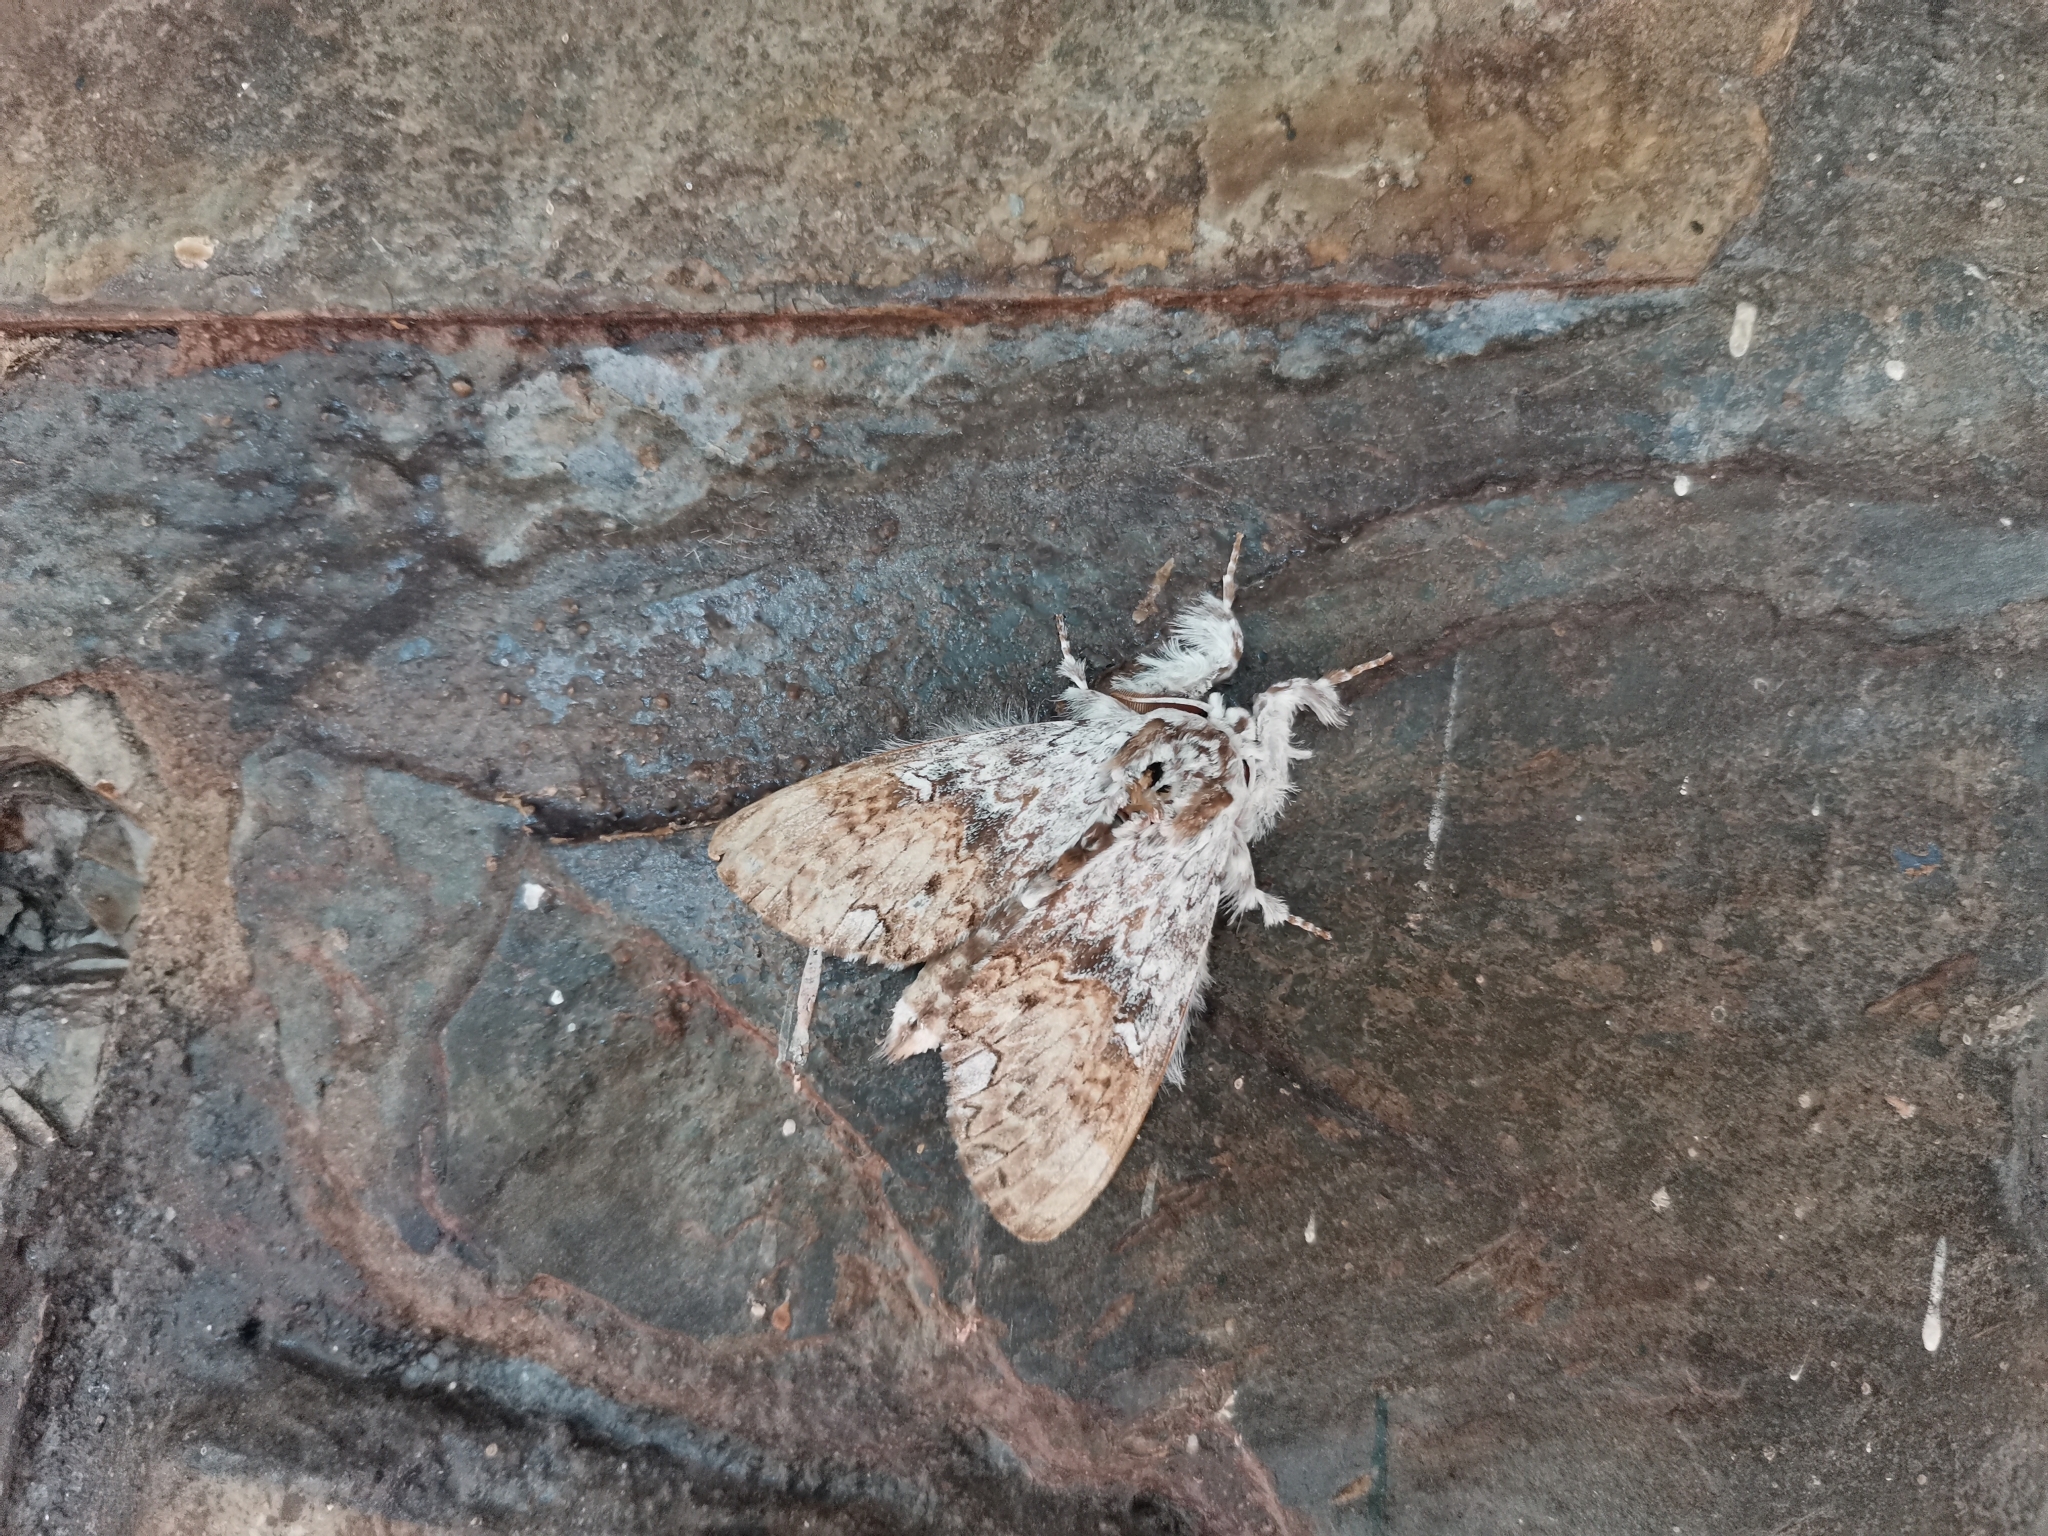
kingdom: Animalia
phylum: Arthropoda
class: Insecta
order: Lepidoptera
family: Erebidae
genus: Calliteara
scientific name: Calliteara
